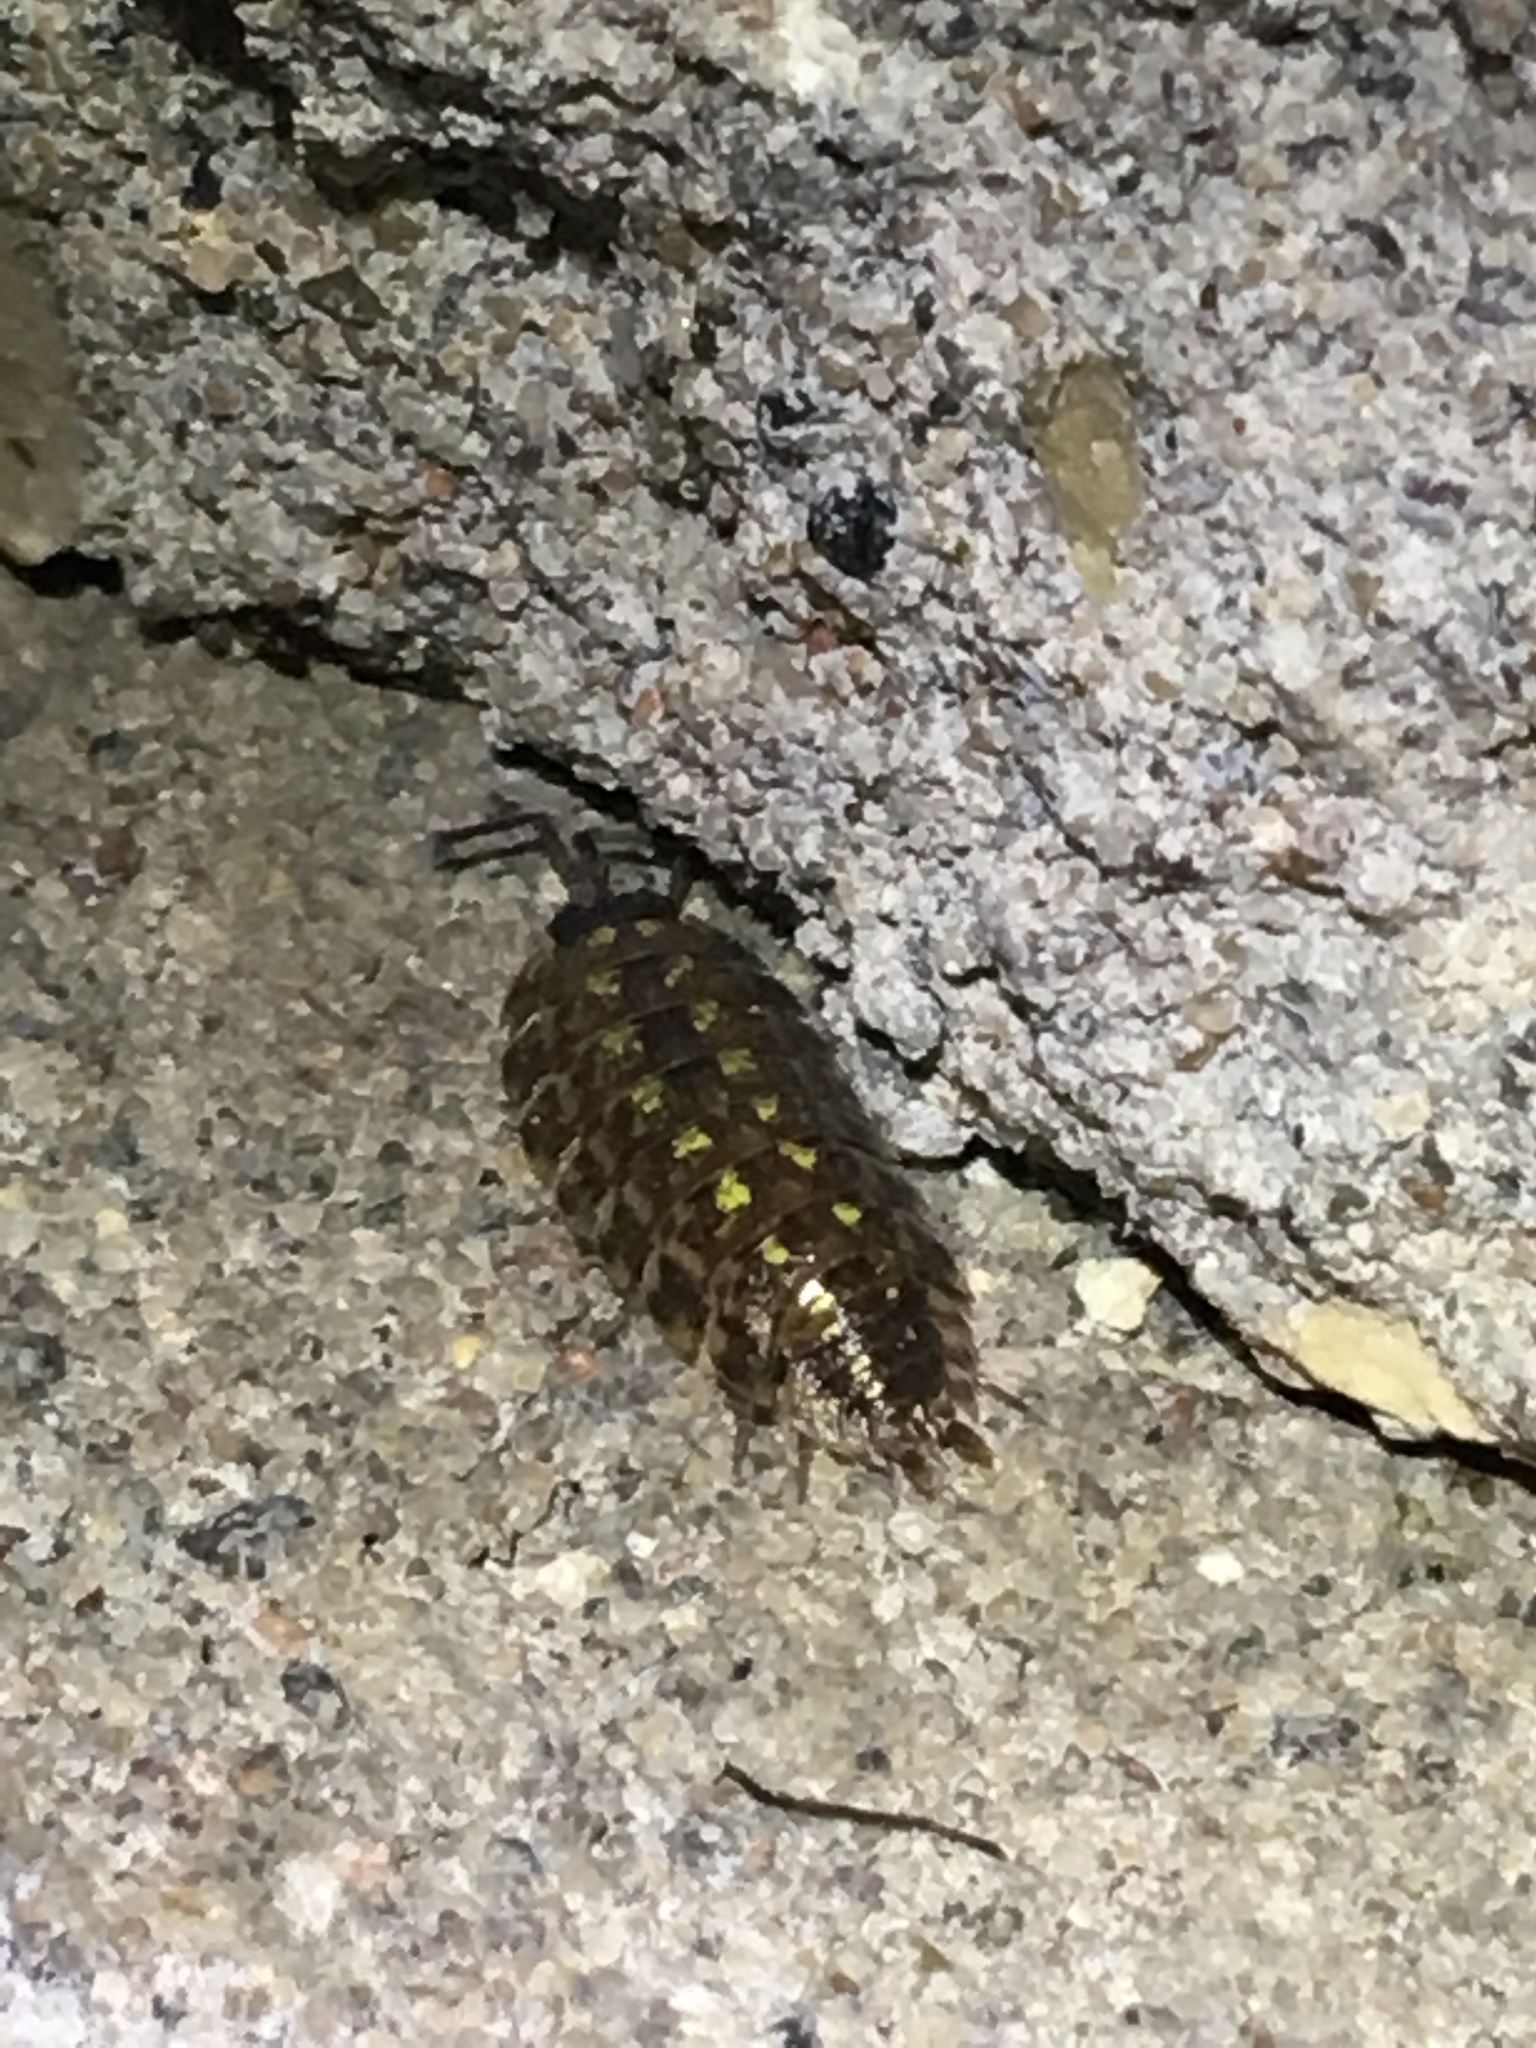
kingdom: Animalia
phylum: Arthropoda
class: Malacostraca
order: Isopoda
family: Porcellionidae
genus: Porcellio
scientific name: Porcellio spinicornis
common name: Painted woodlouse
